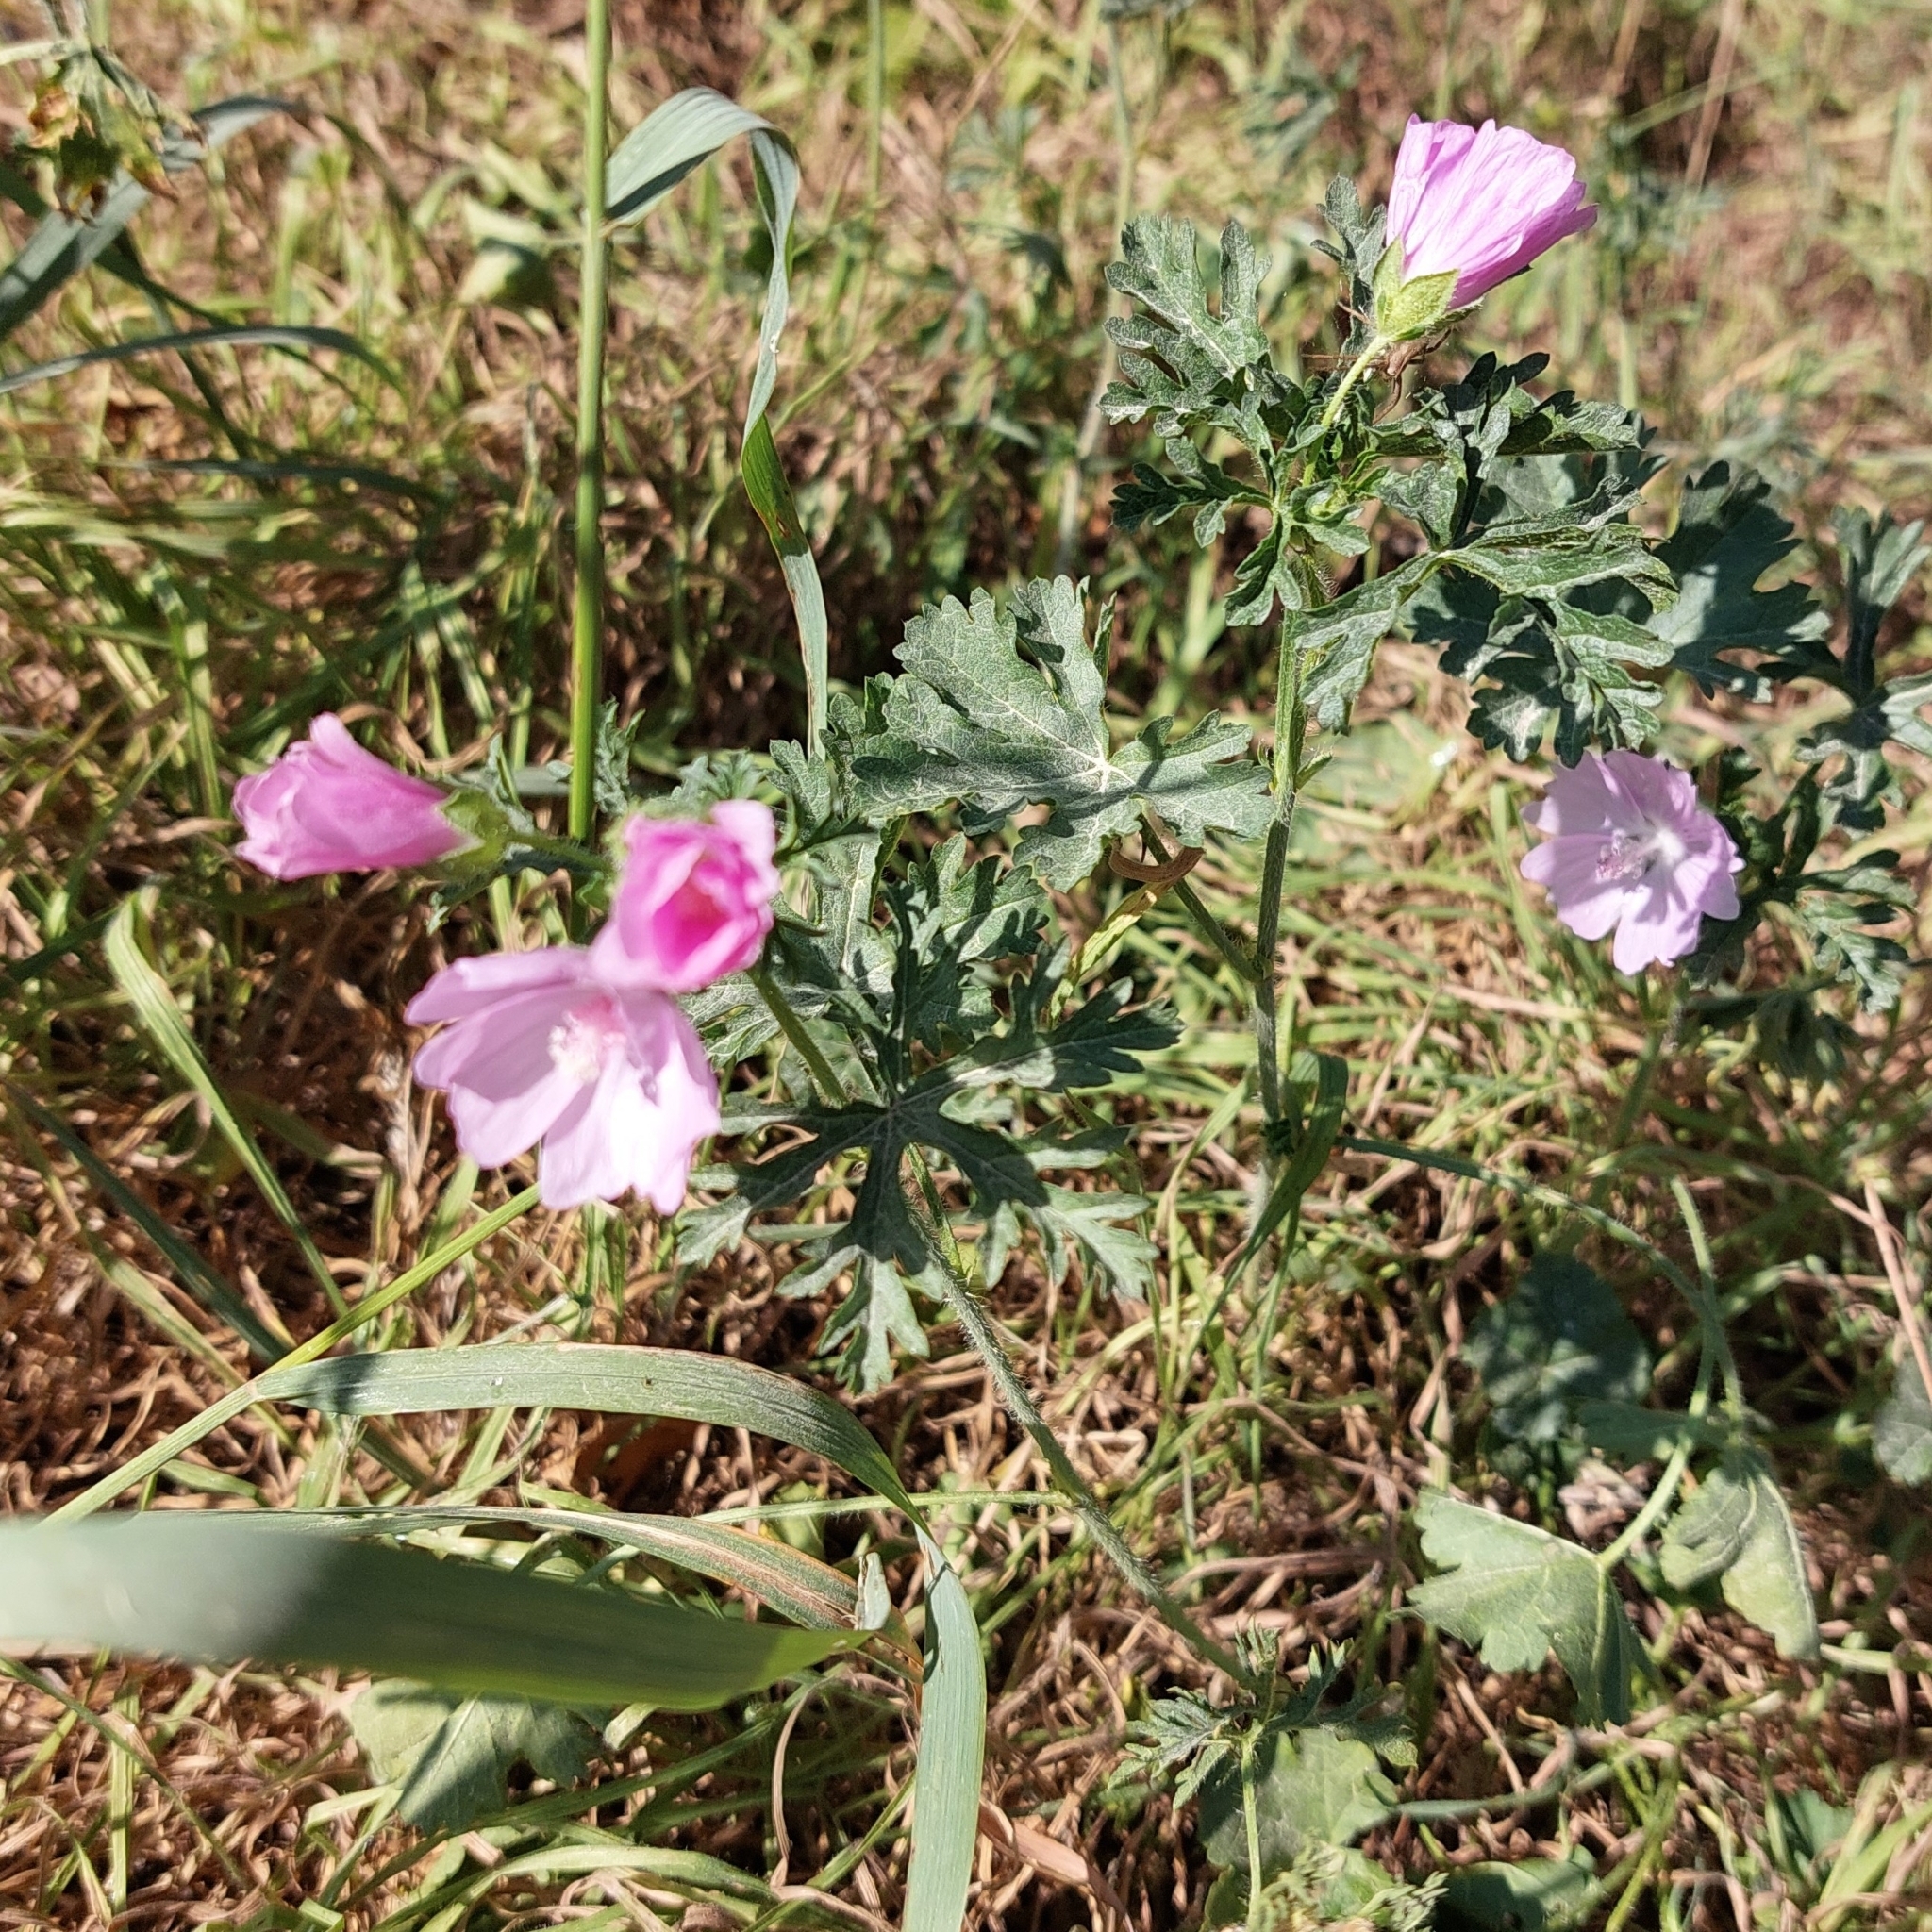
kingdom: Plantae
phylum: Tracheophyta
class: Magnoliopsida
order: Malvales
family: Malvaceae
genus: Malva
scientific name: Malva moschata
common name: Musk mallow
